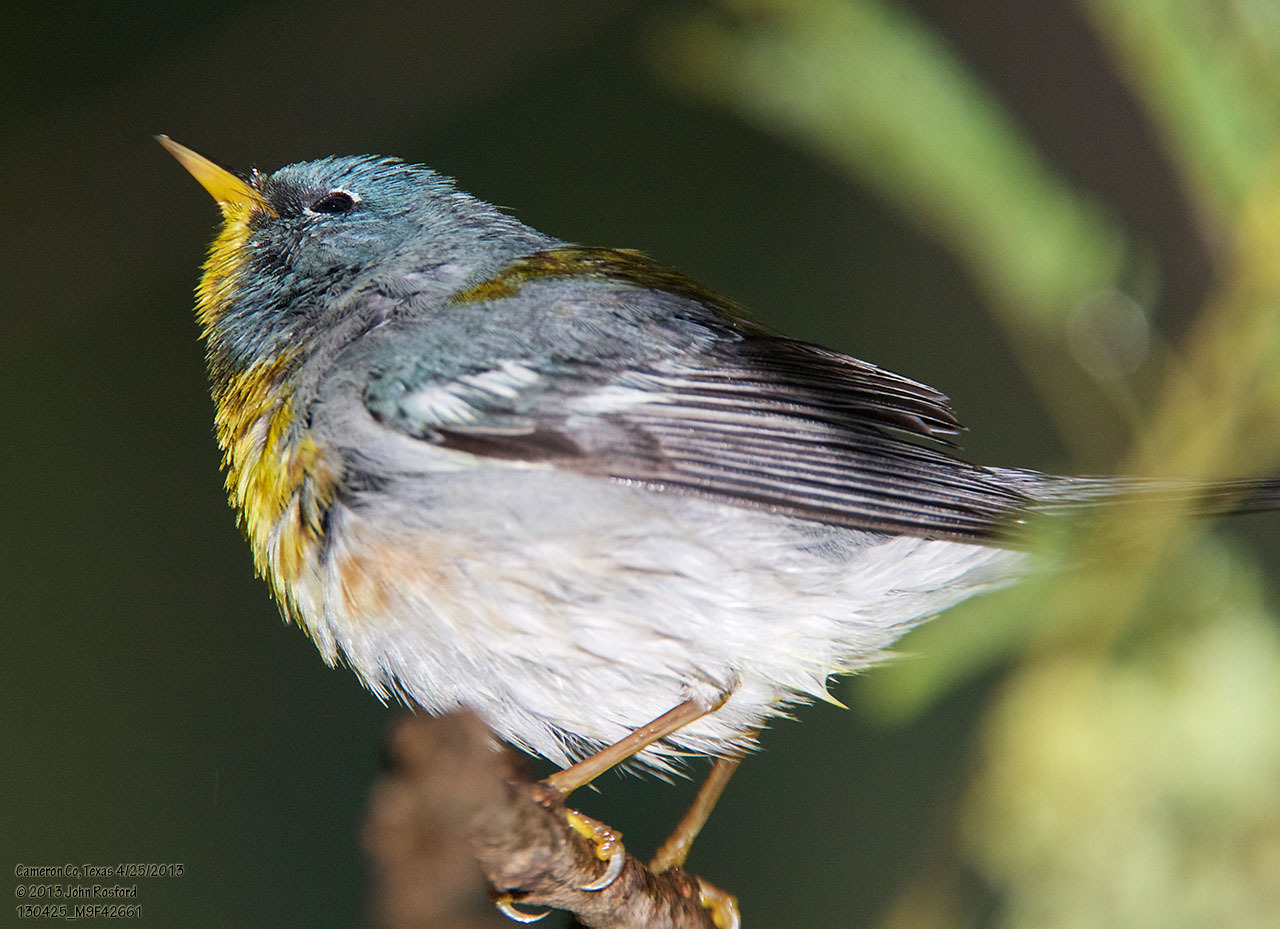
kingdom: Animalia
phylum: Chordata
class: Aves
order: Passeriformes
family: Parulidae
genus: Setophaga
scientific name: Setophaga americana
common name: Northern parula
